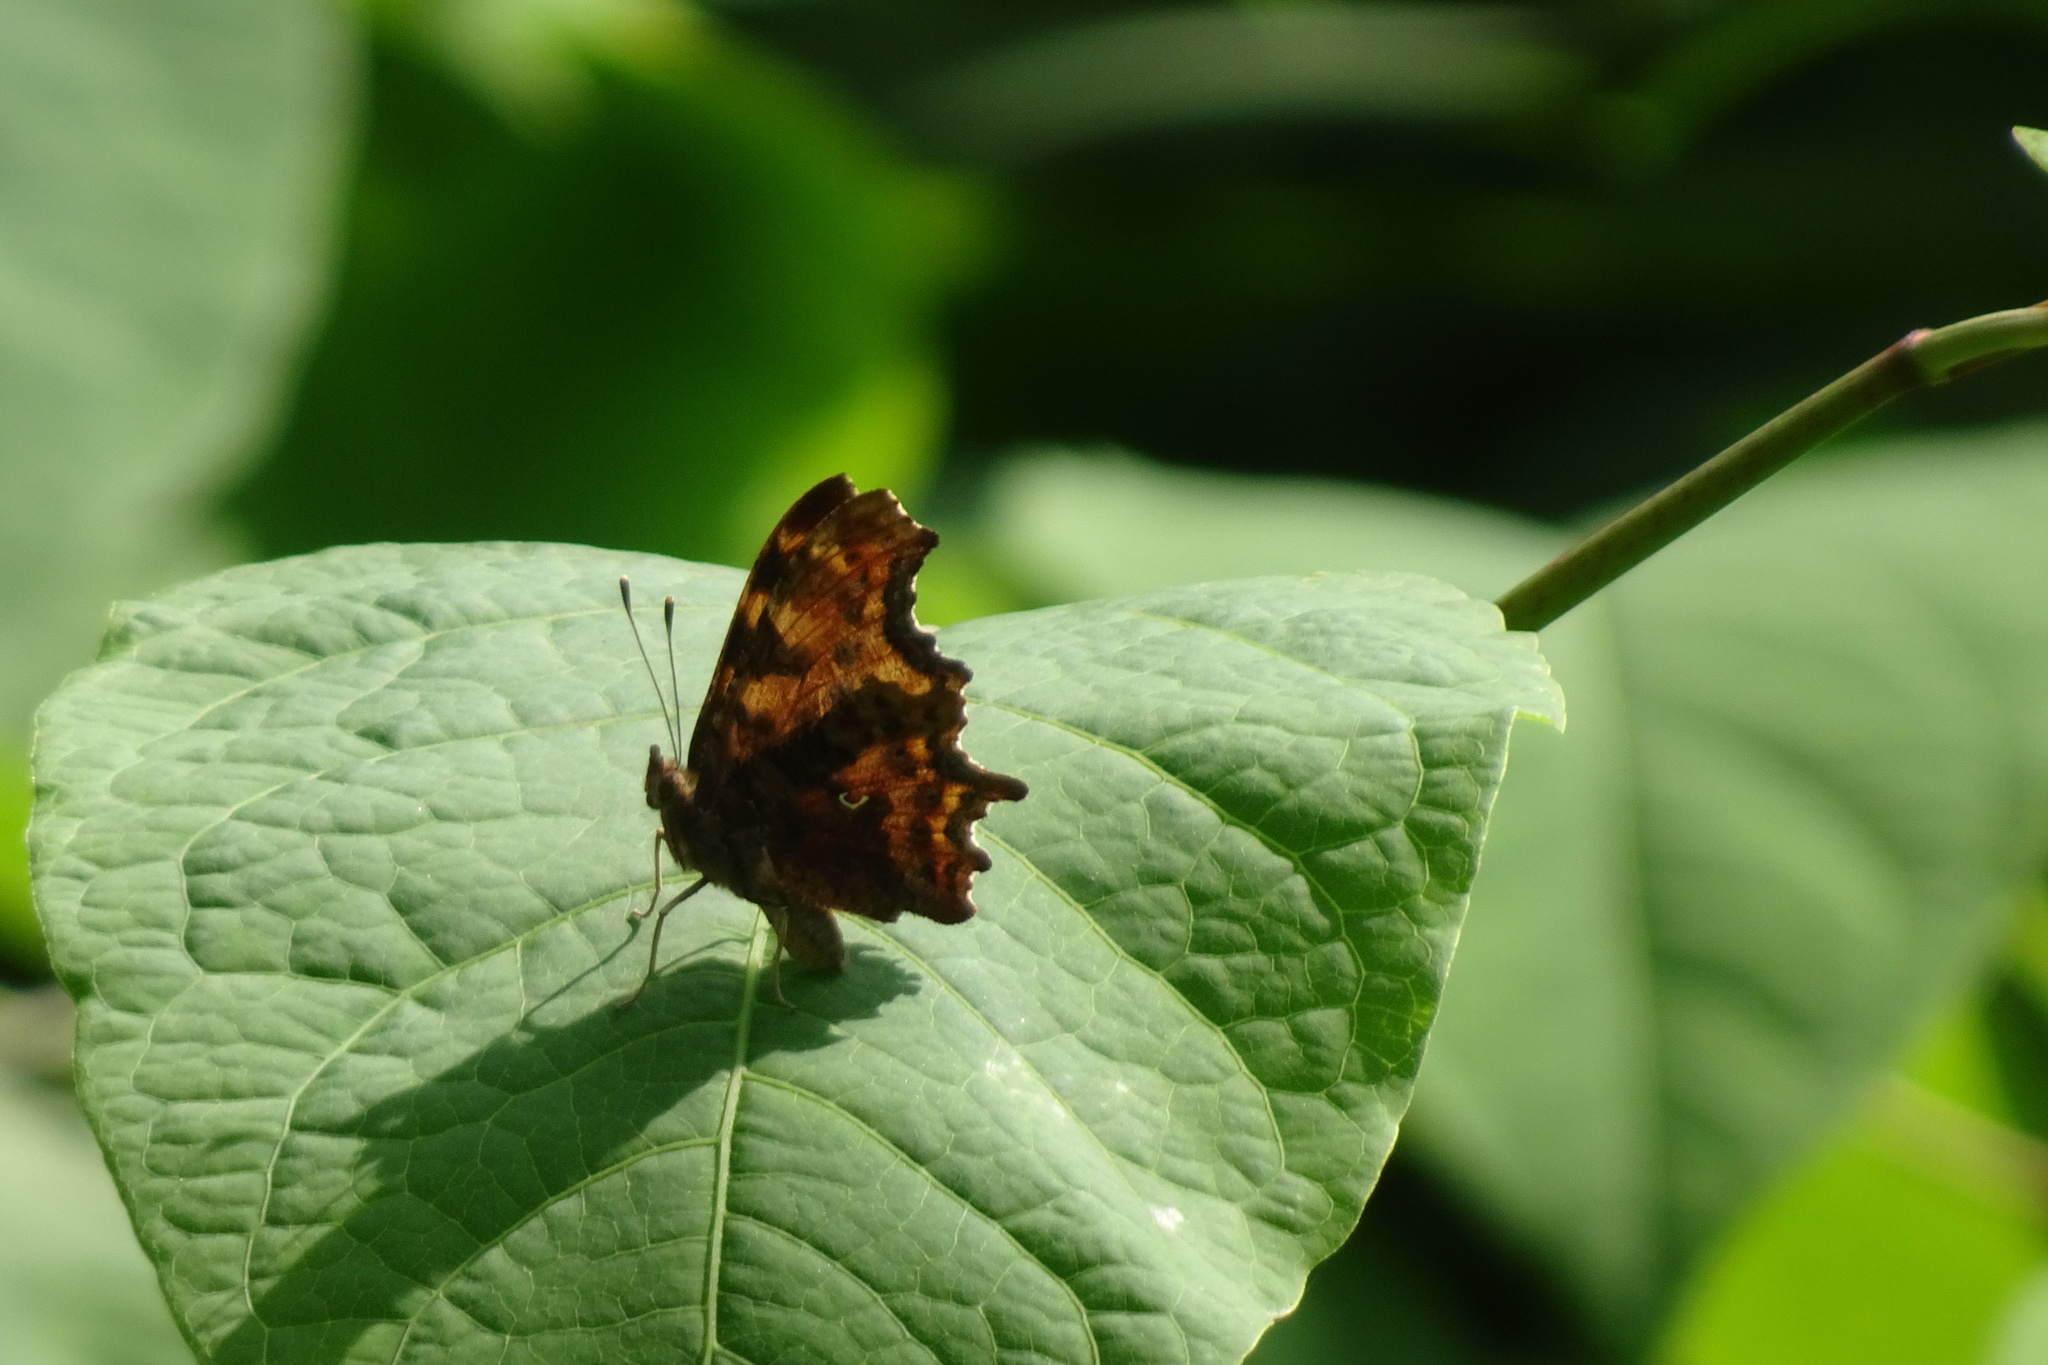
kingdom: Animalia
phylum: Arthropoda
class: Insecta
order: Lepidoptera
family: Nymphalidae
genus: Polygonia
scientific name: Polygonia c-album
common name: Comma
